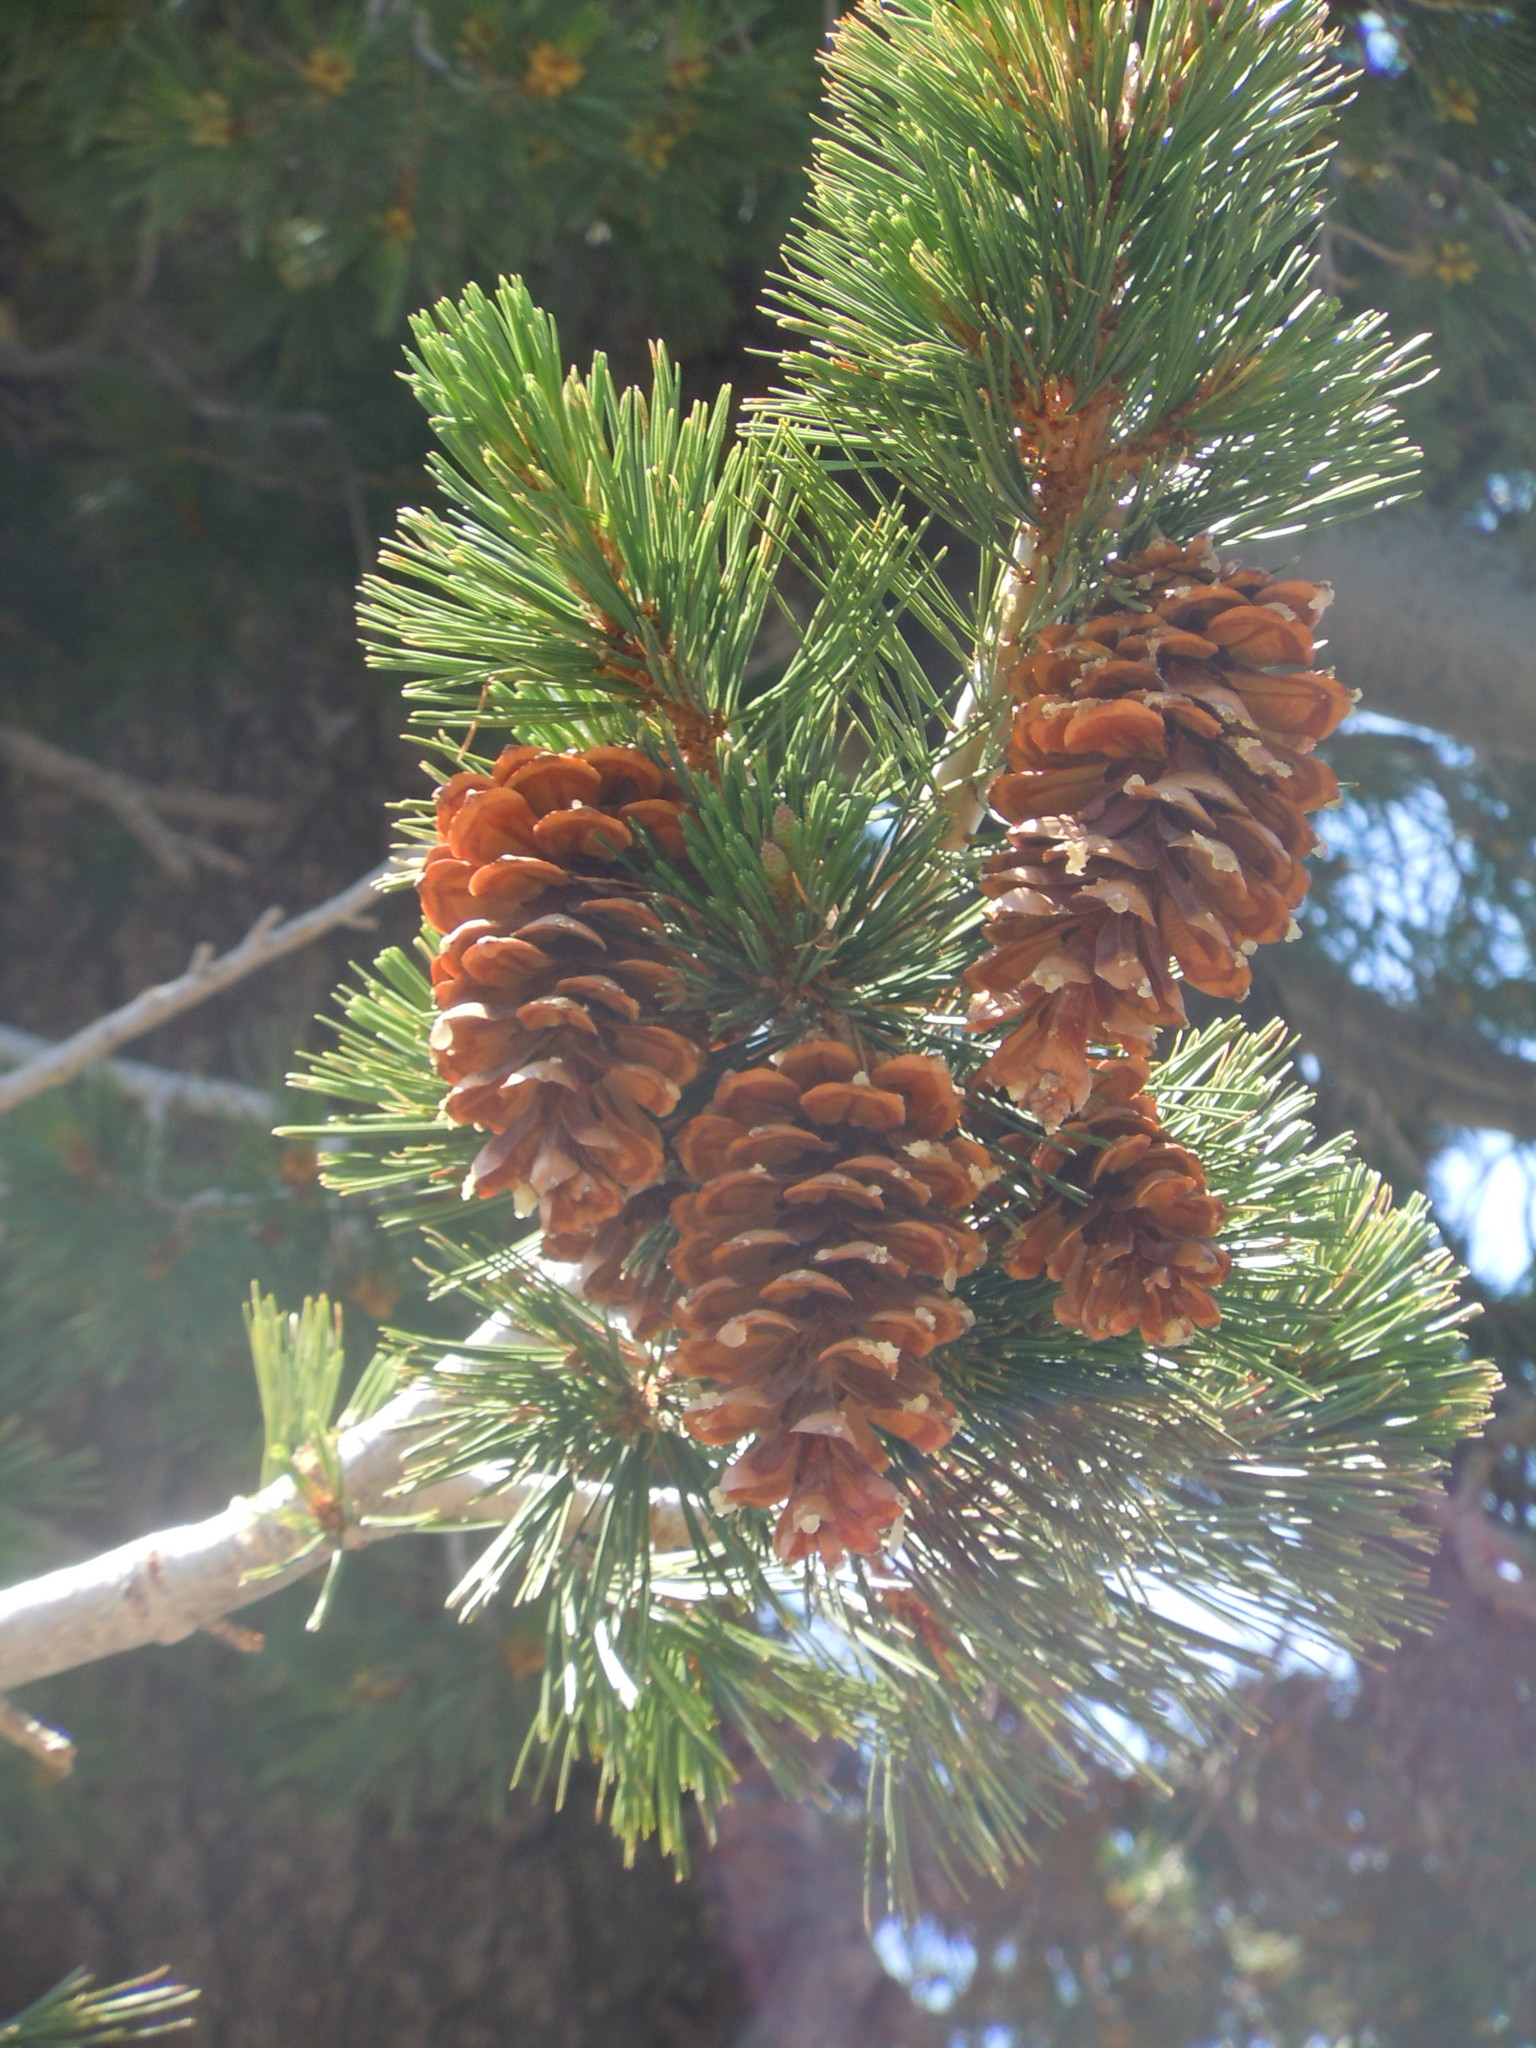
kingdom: Plantae
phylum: Tracheophyta
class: Pinopsida
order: Pinales
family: Pinaceae
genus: Pinus
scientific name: Pinus monticola
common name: Western white pine
